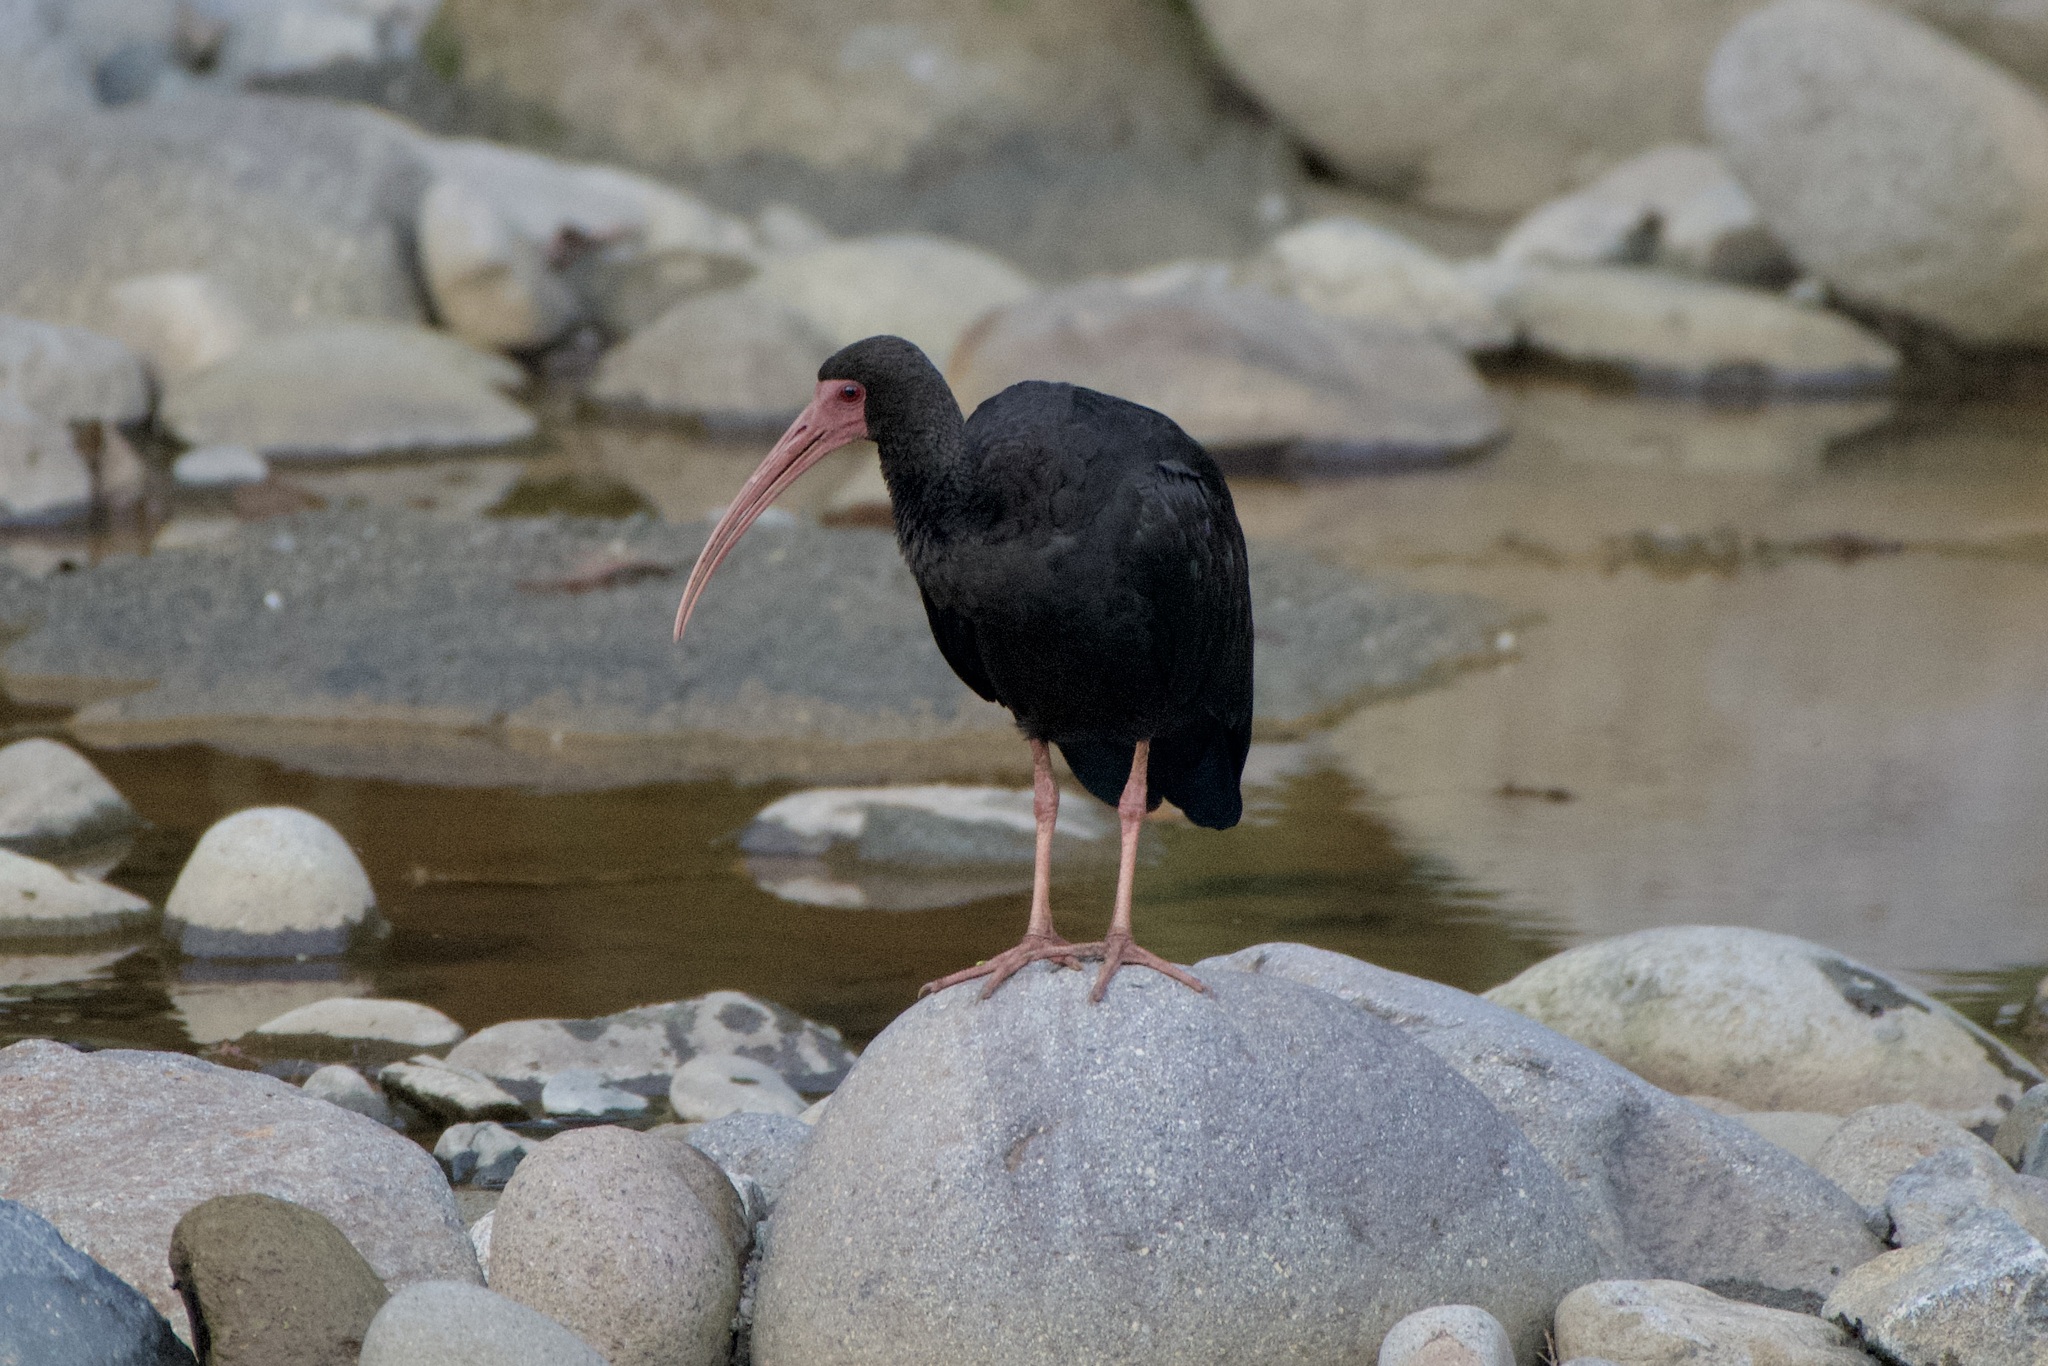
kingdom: Animalia
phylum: Chordata
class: Aves
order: Pelecaniformes
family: Threskiornithidae
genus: Phimosus
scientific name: Phimosus infuscatus
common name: Bare-faced ibis
